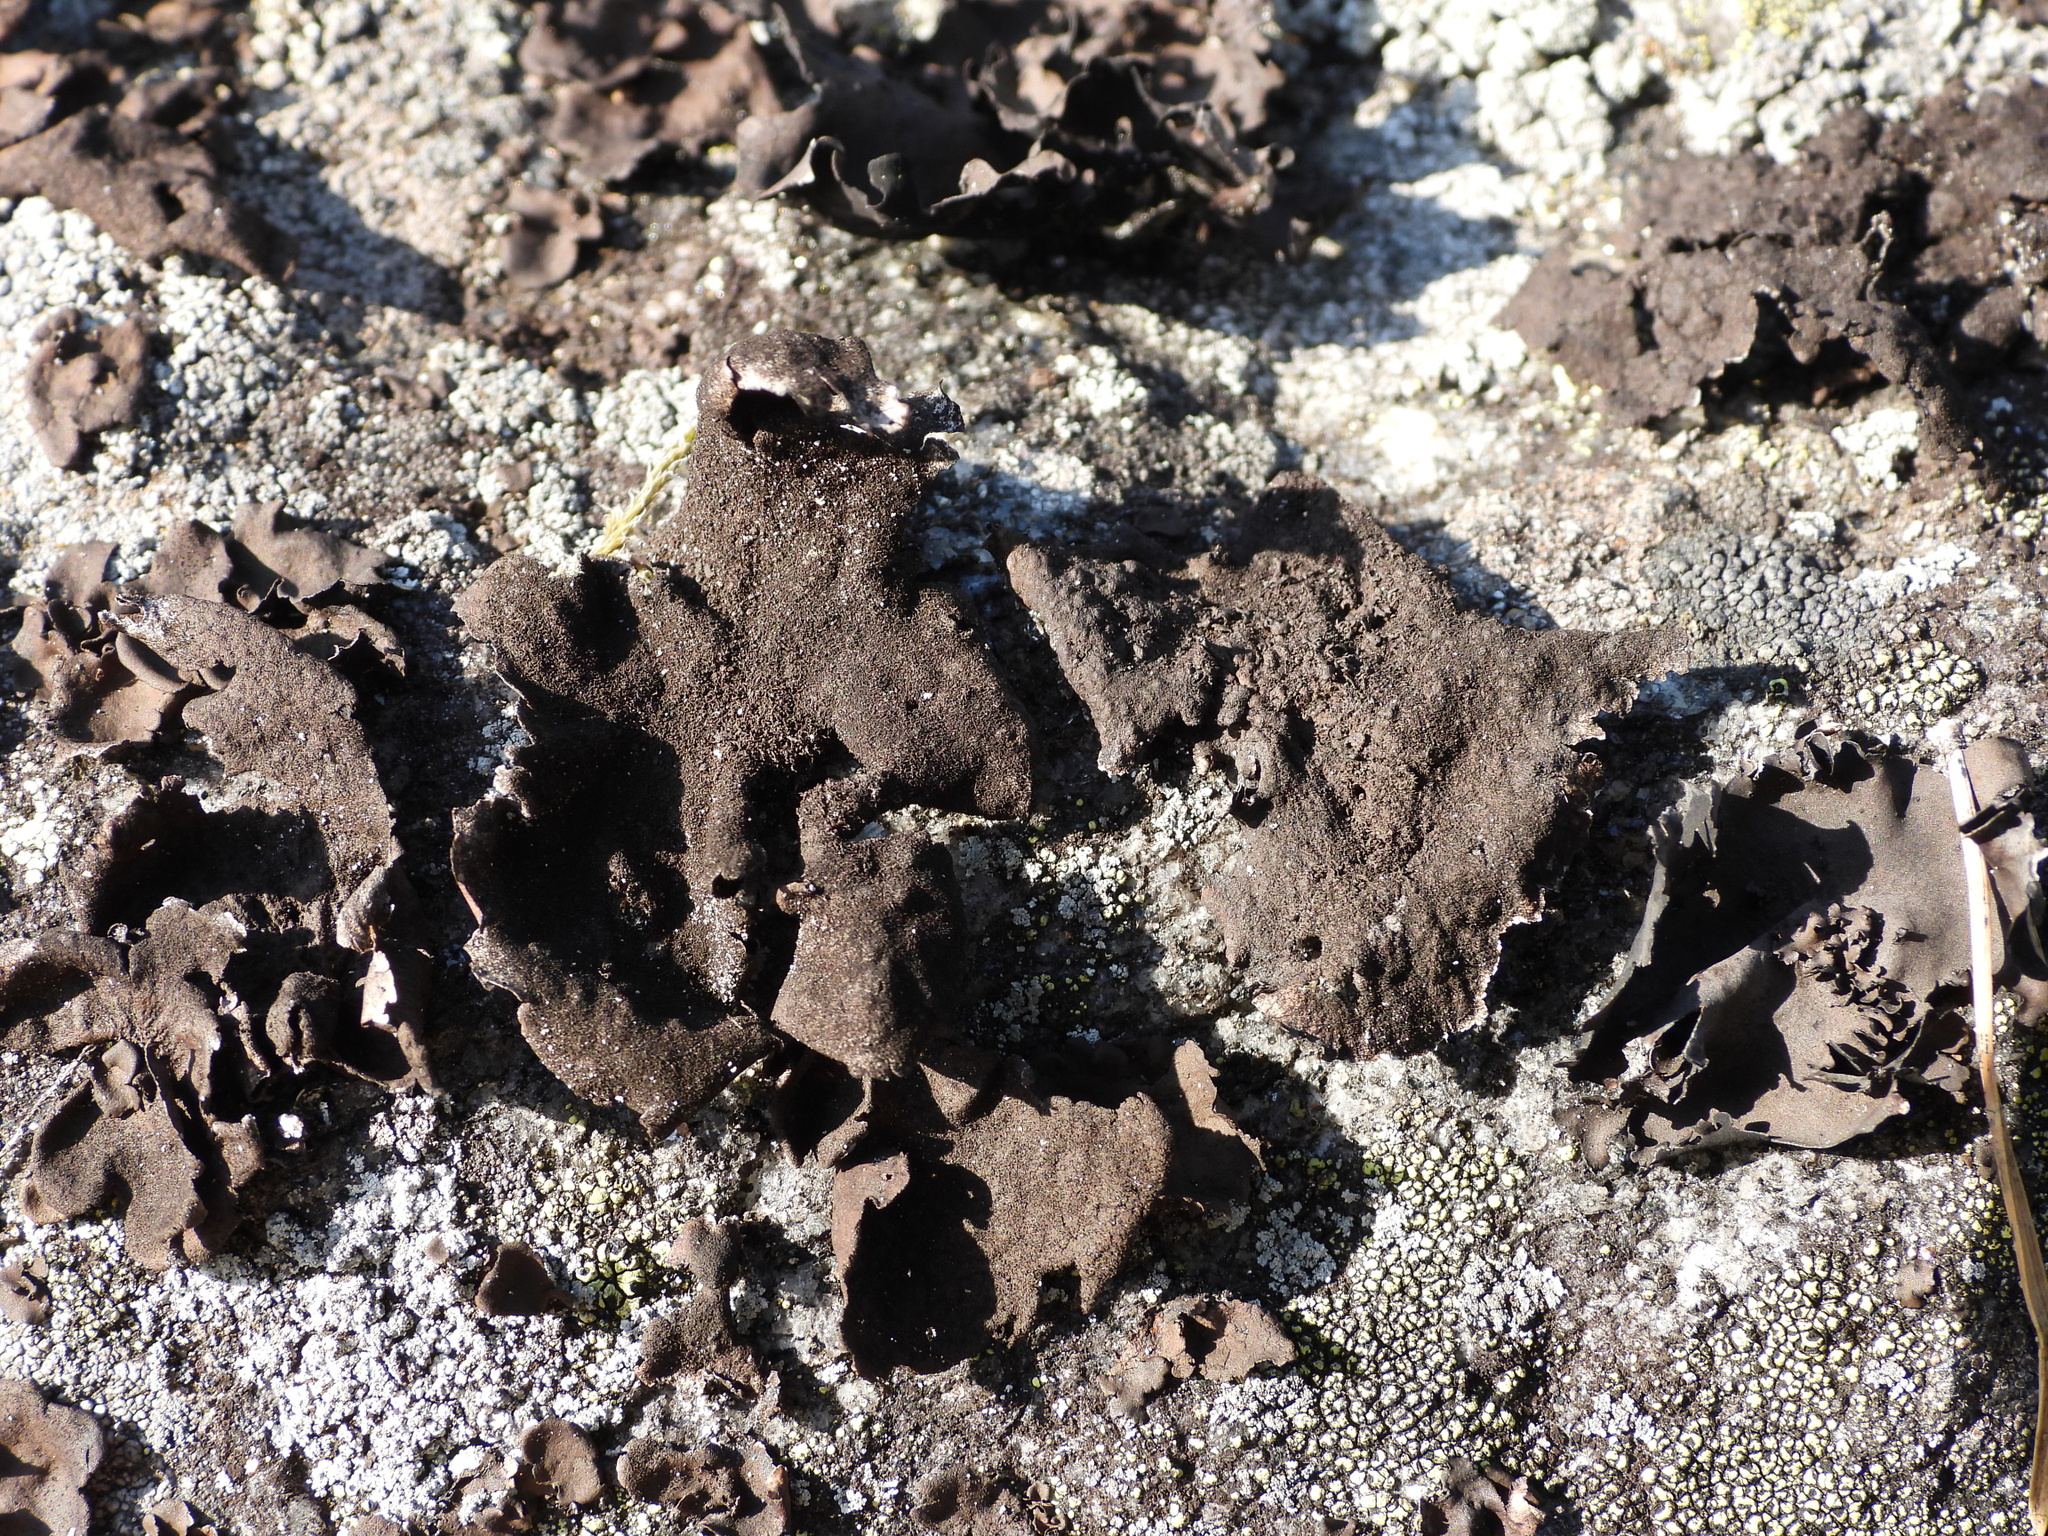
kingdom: Fungi
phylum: Ascomycota
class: Lecanoromycetes
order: Umbilicariales
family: Umbilicariaceae
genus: Umbilicaria
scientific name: Umbilicaria deusta
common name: Peppered rock tripe
